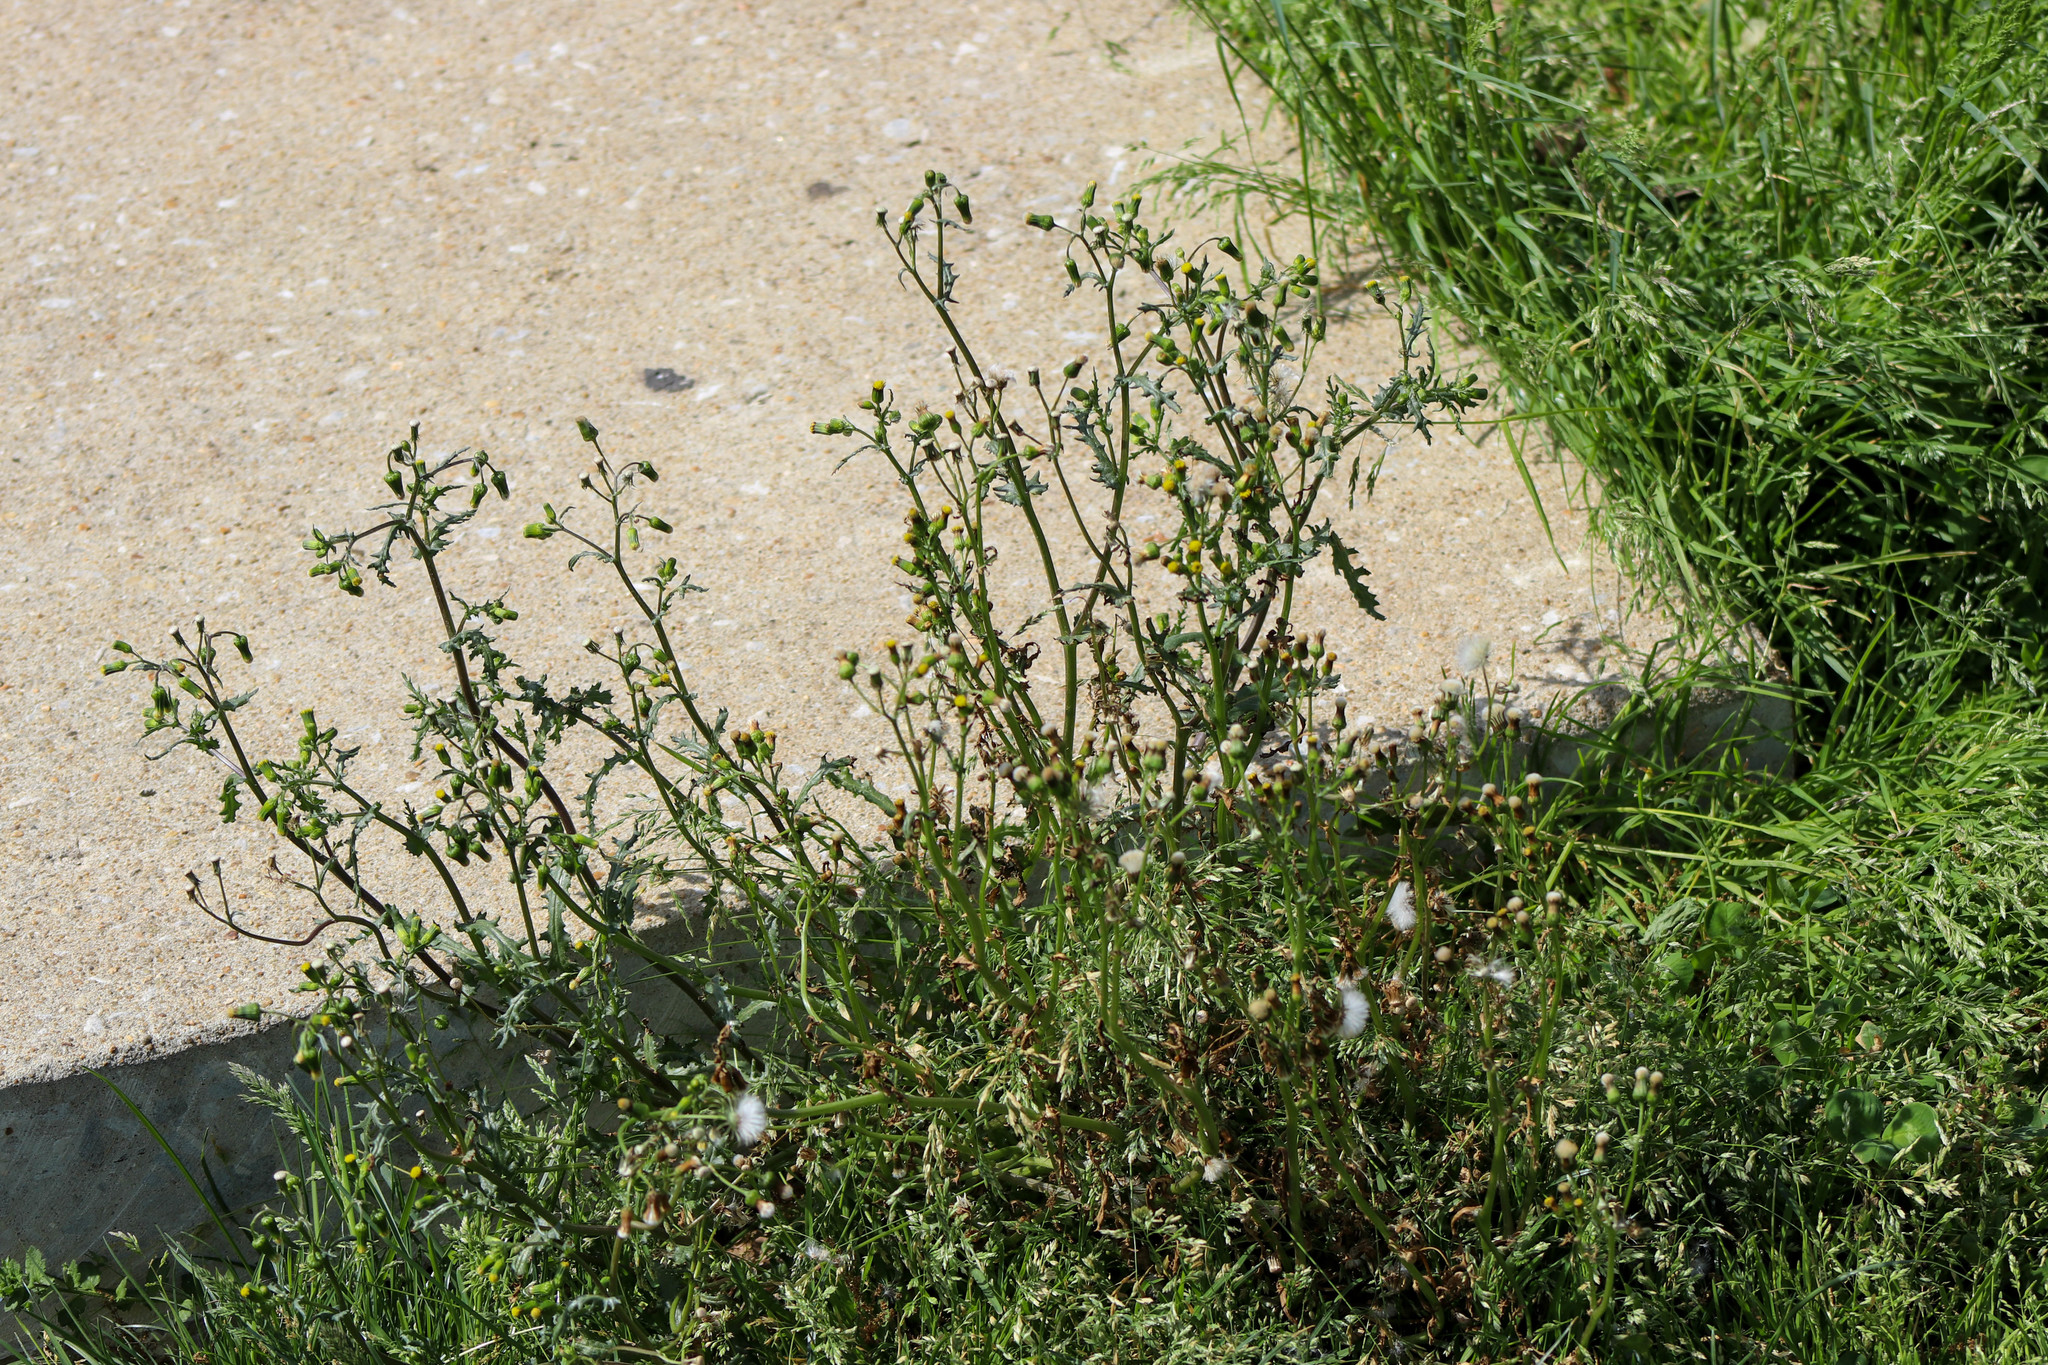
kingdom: Plantae
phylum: Tracheophyta
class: Magnoliopsida
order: Asterales
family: Asteraceae
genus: Senecio
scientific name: Senecio vulgaris
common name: Old-man-in-the-spring
